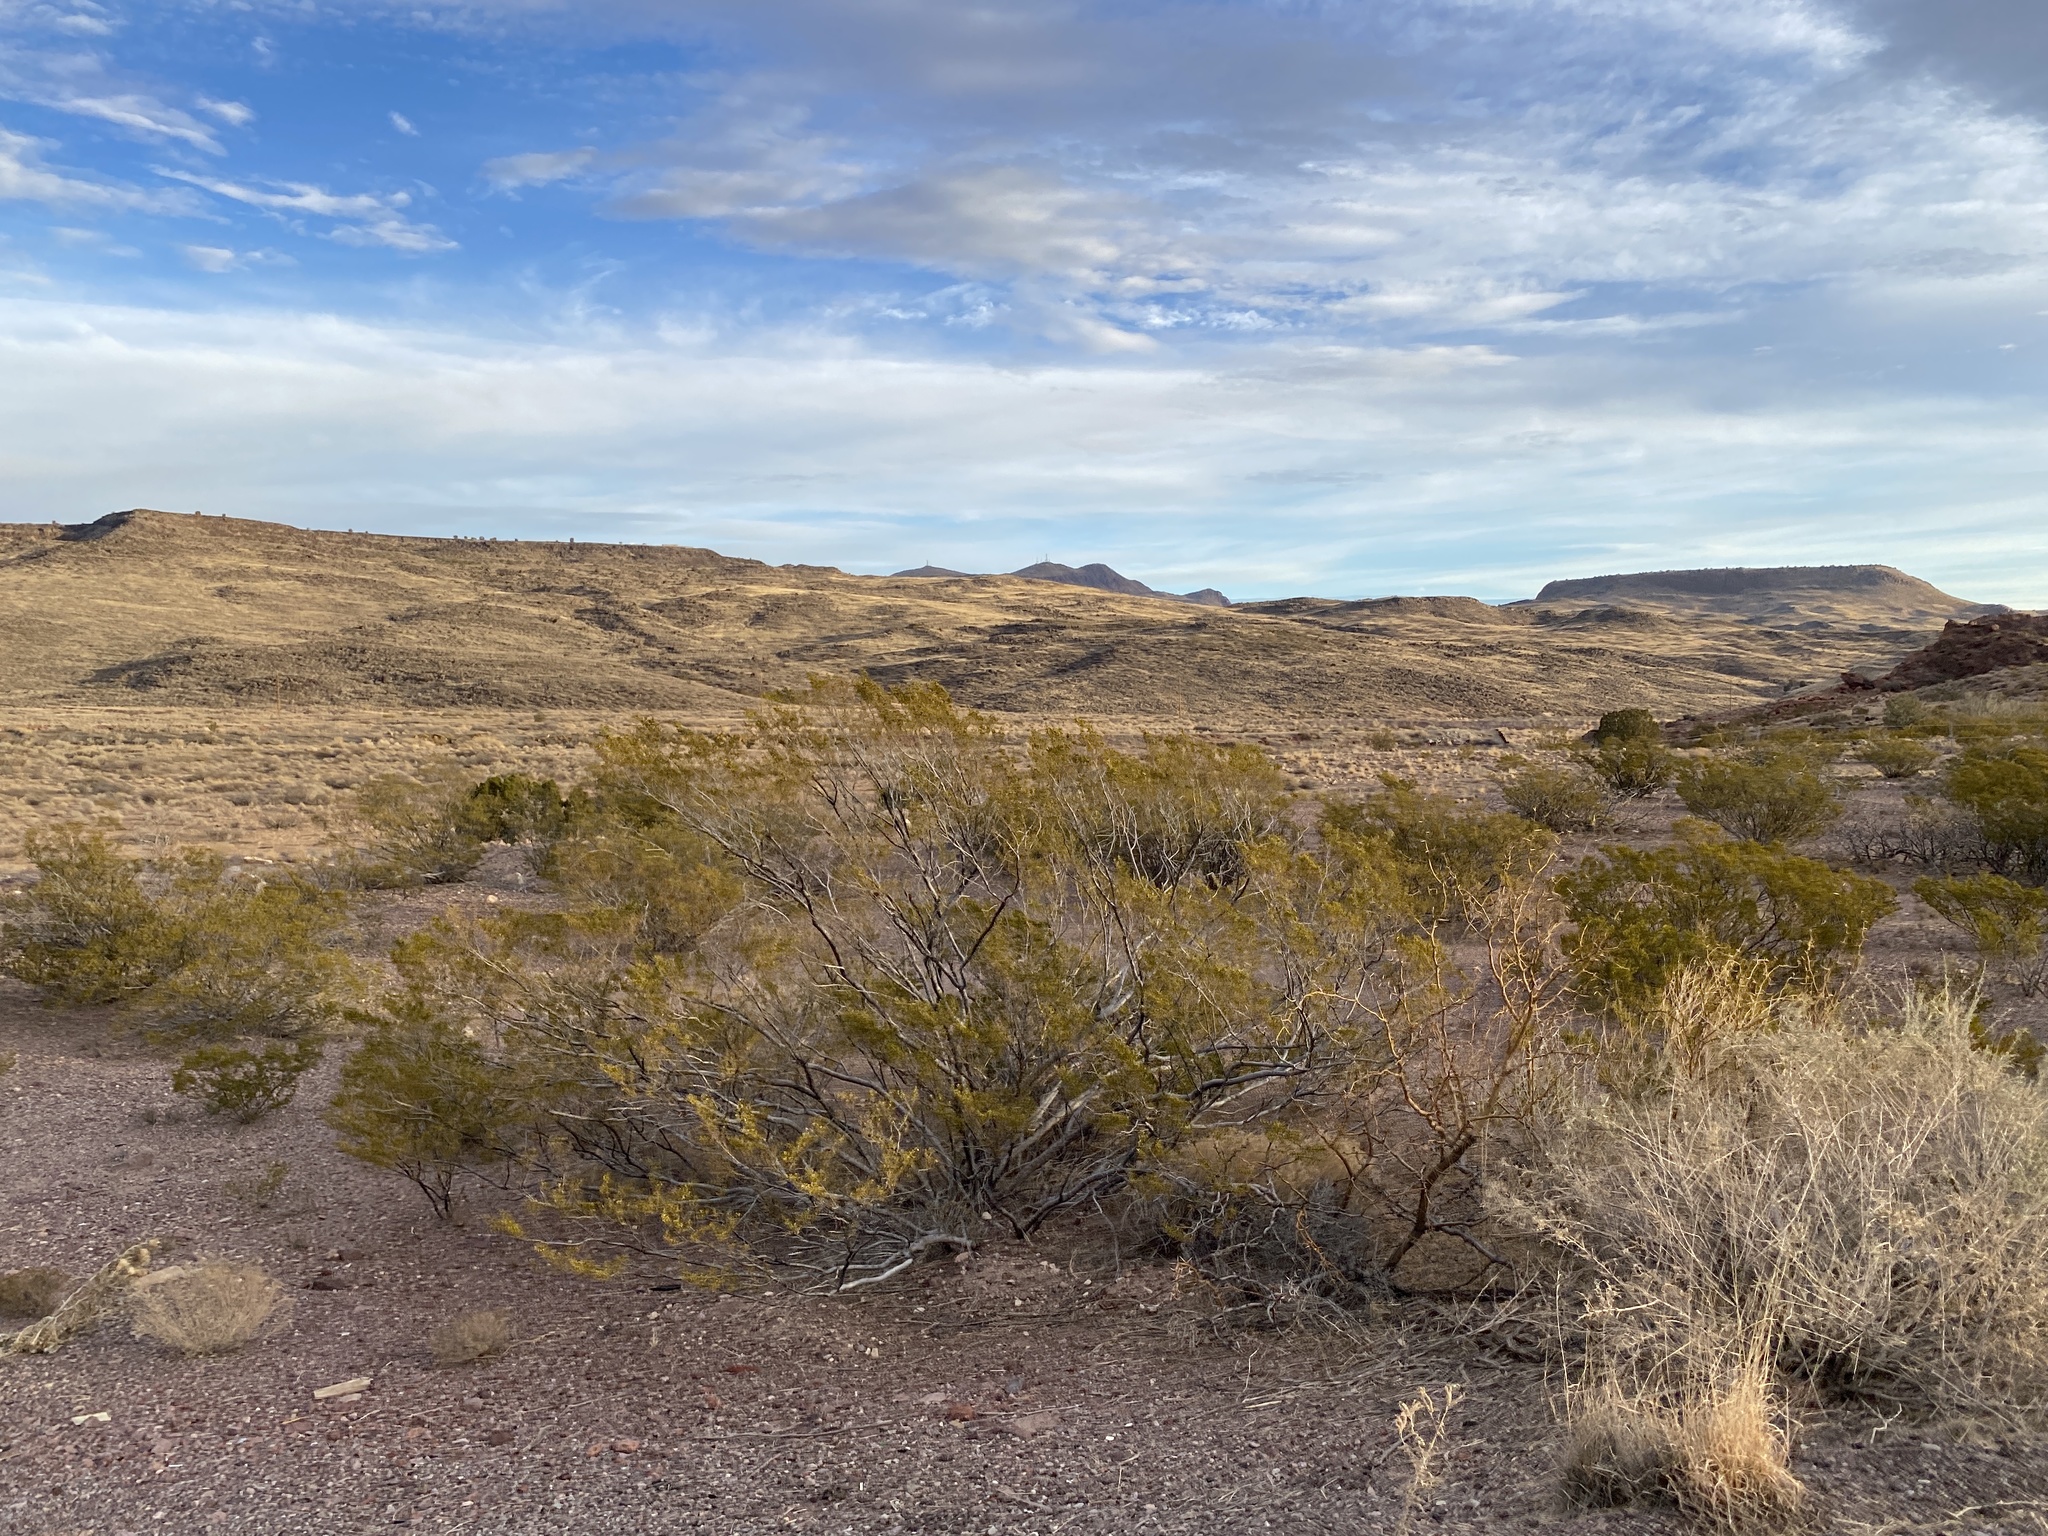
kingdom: Plantae
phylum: Tracheophyta
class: Magnoliopsida
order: Zygophyllales
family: Zygophyllaceae
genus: Larrea
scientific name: Larrea tridentata
